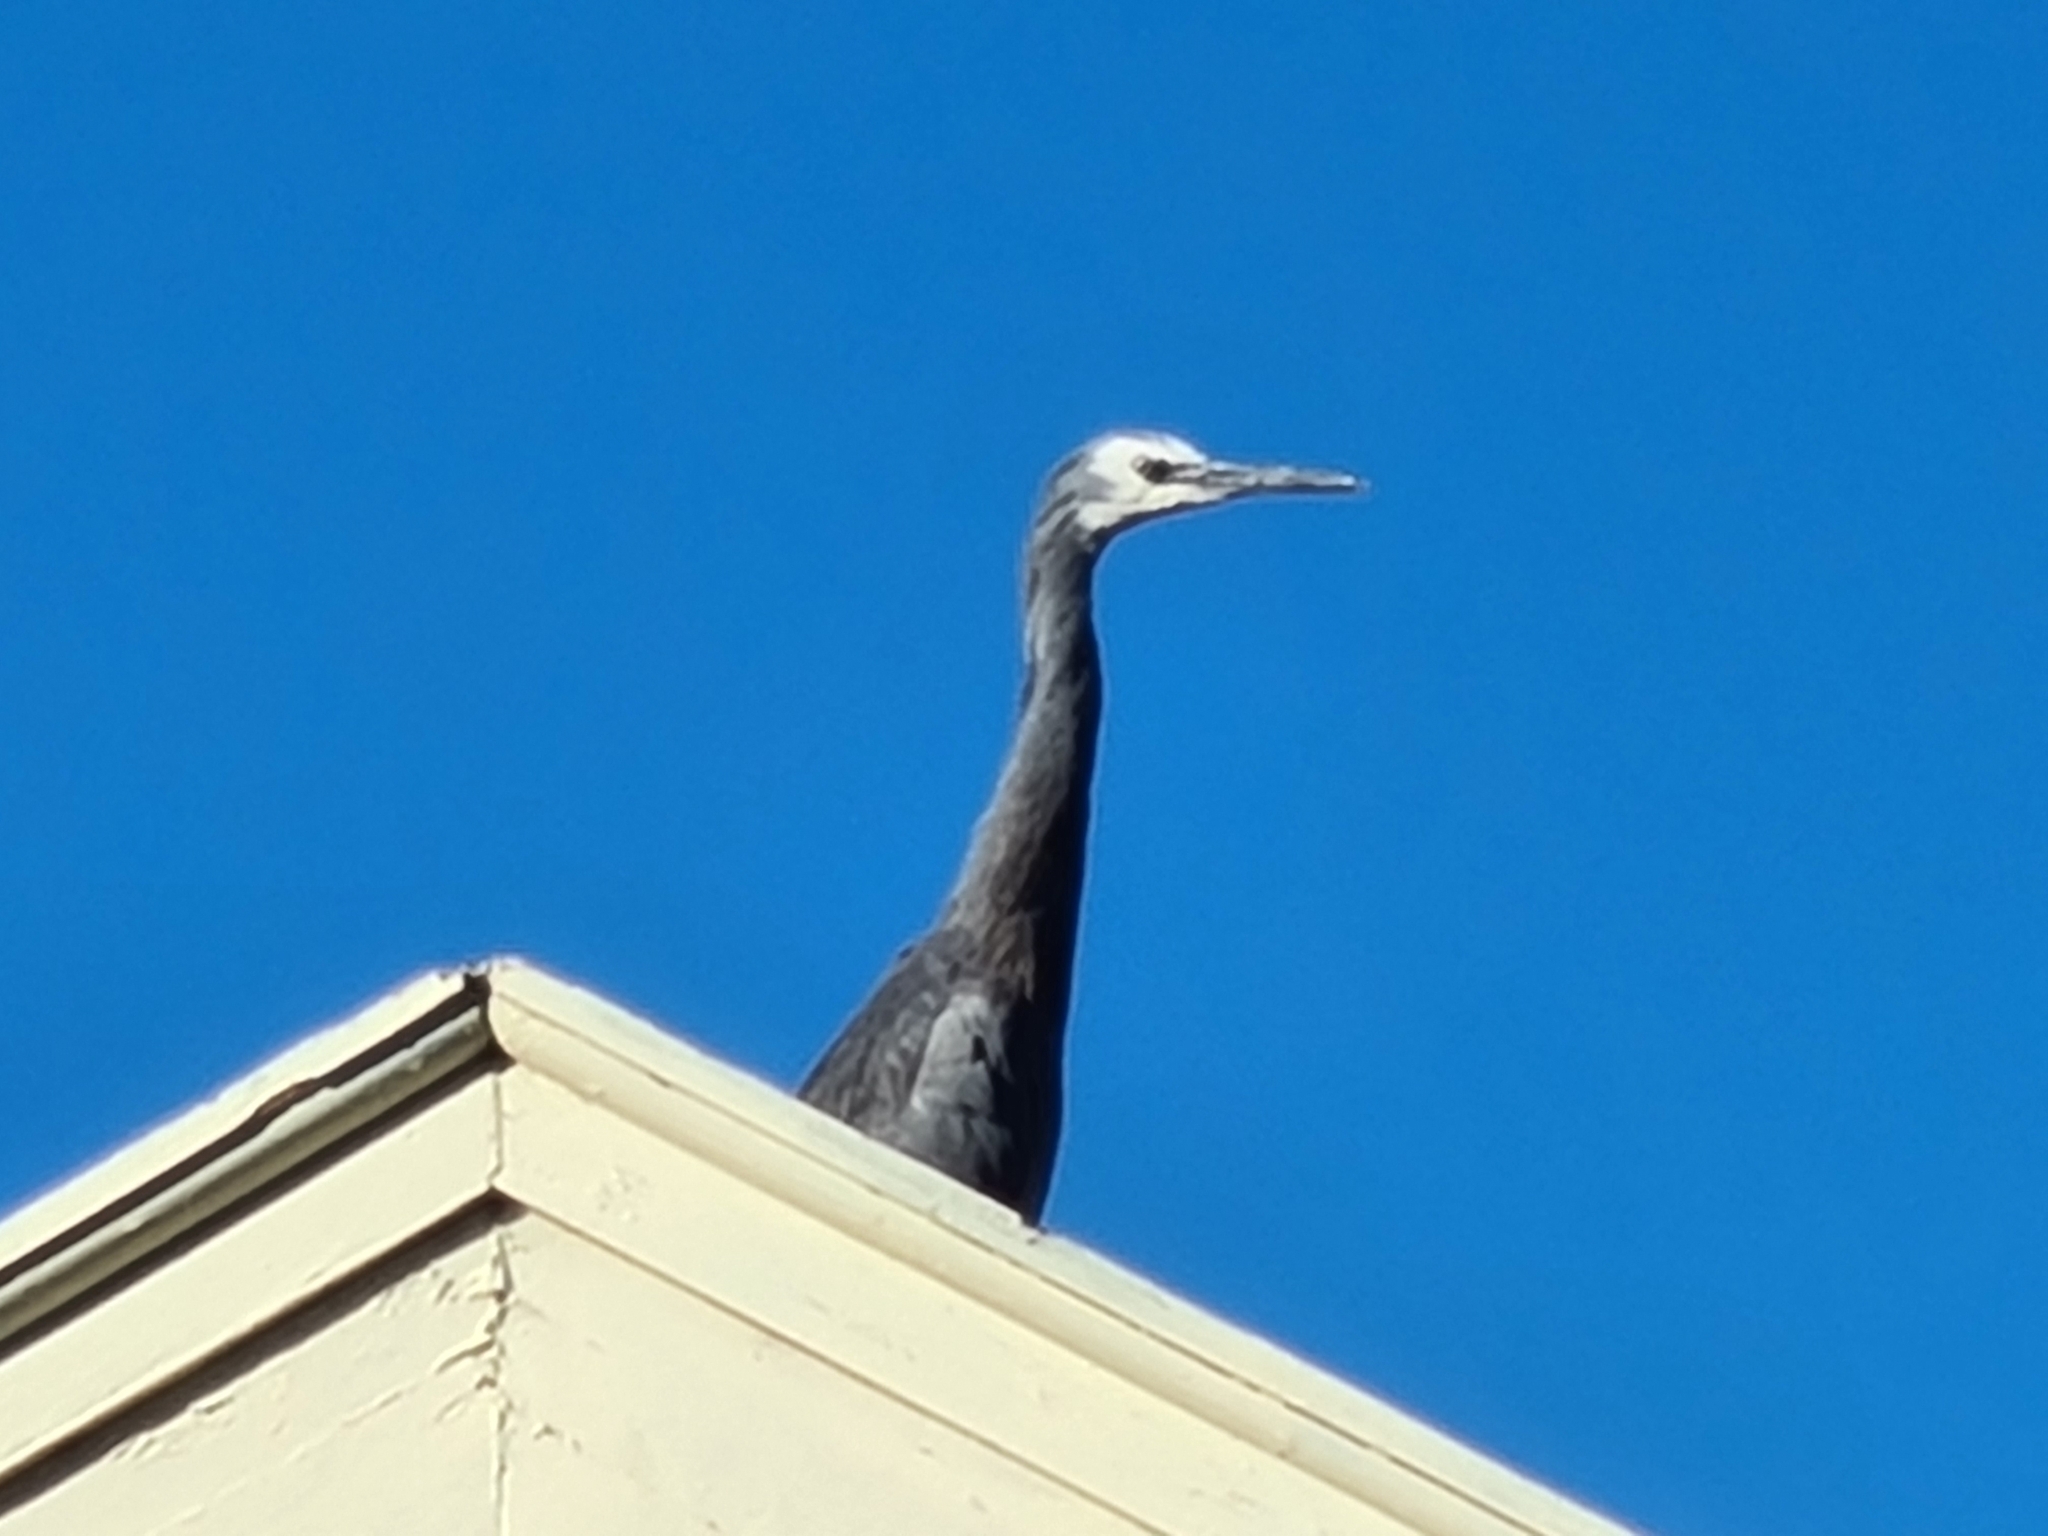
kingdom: Animalia
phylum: Chordata
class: Aves
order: Pelecaniformes
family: Ardeidae
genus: Egretta
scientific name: Egretta novaehollandiae
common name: White-faced heron
